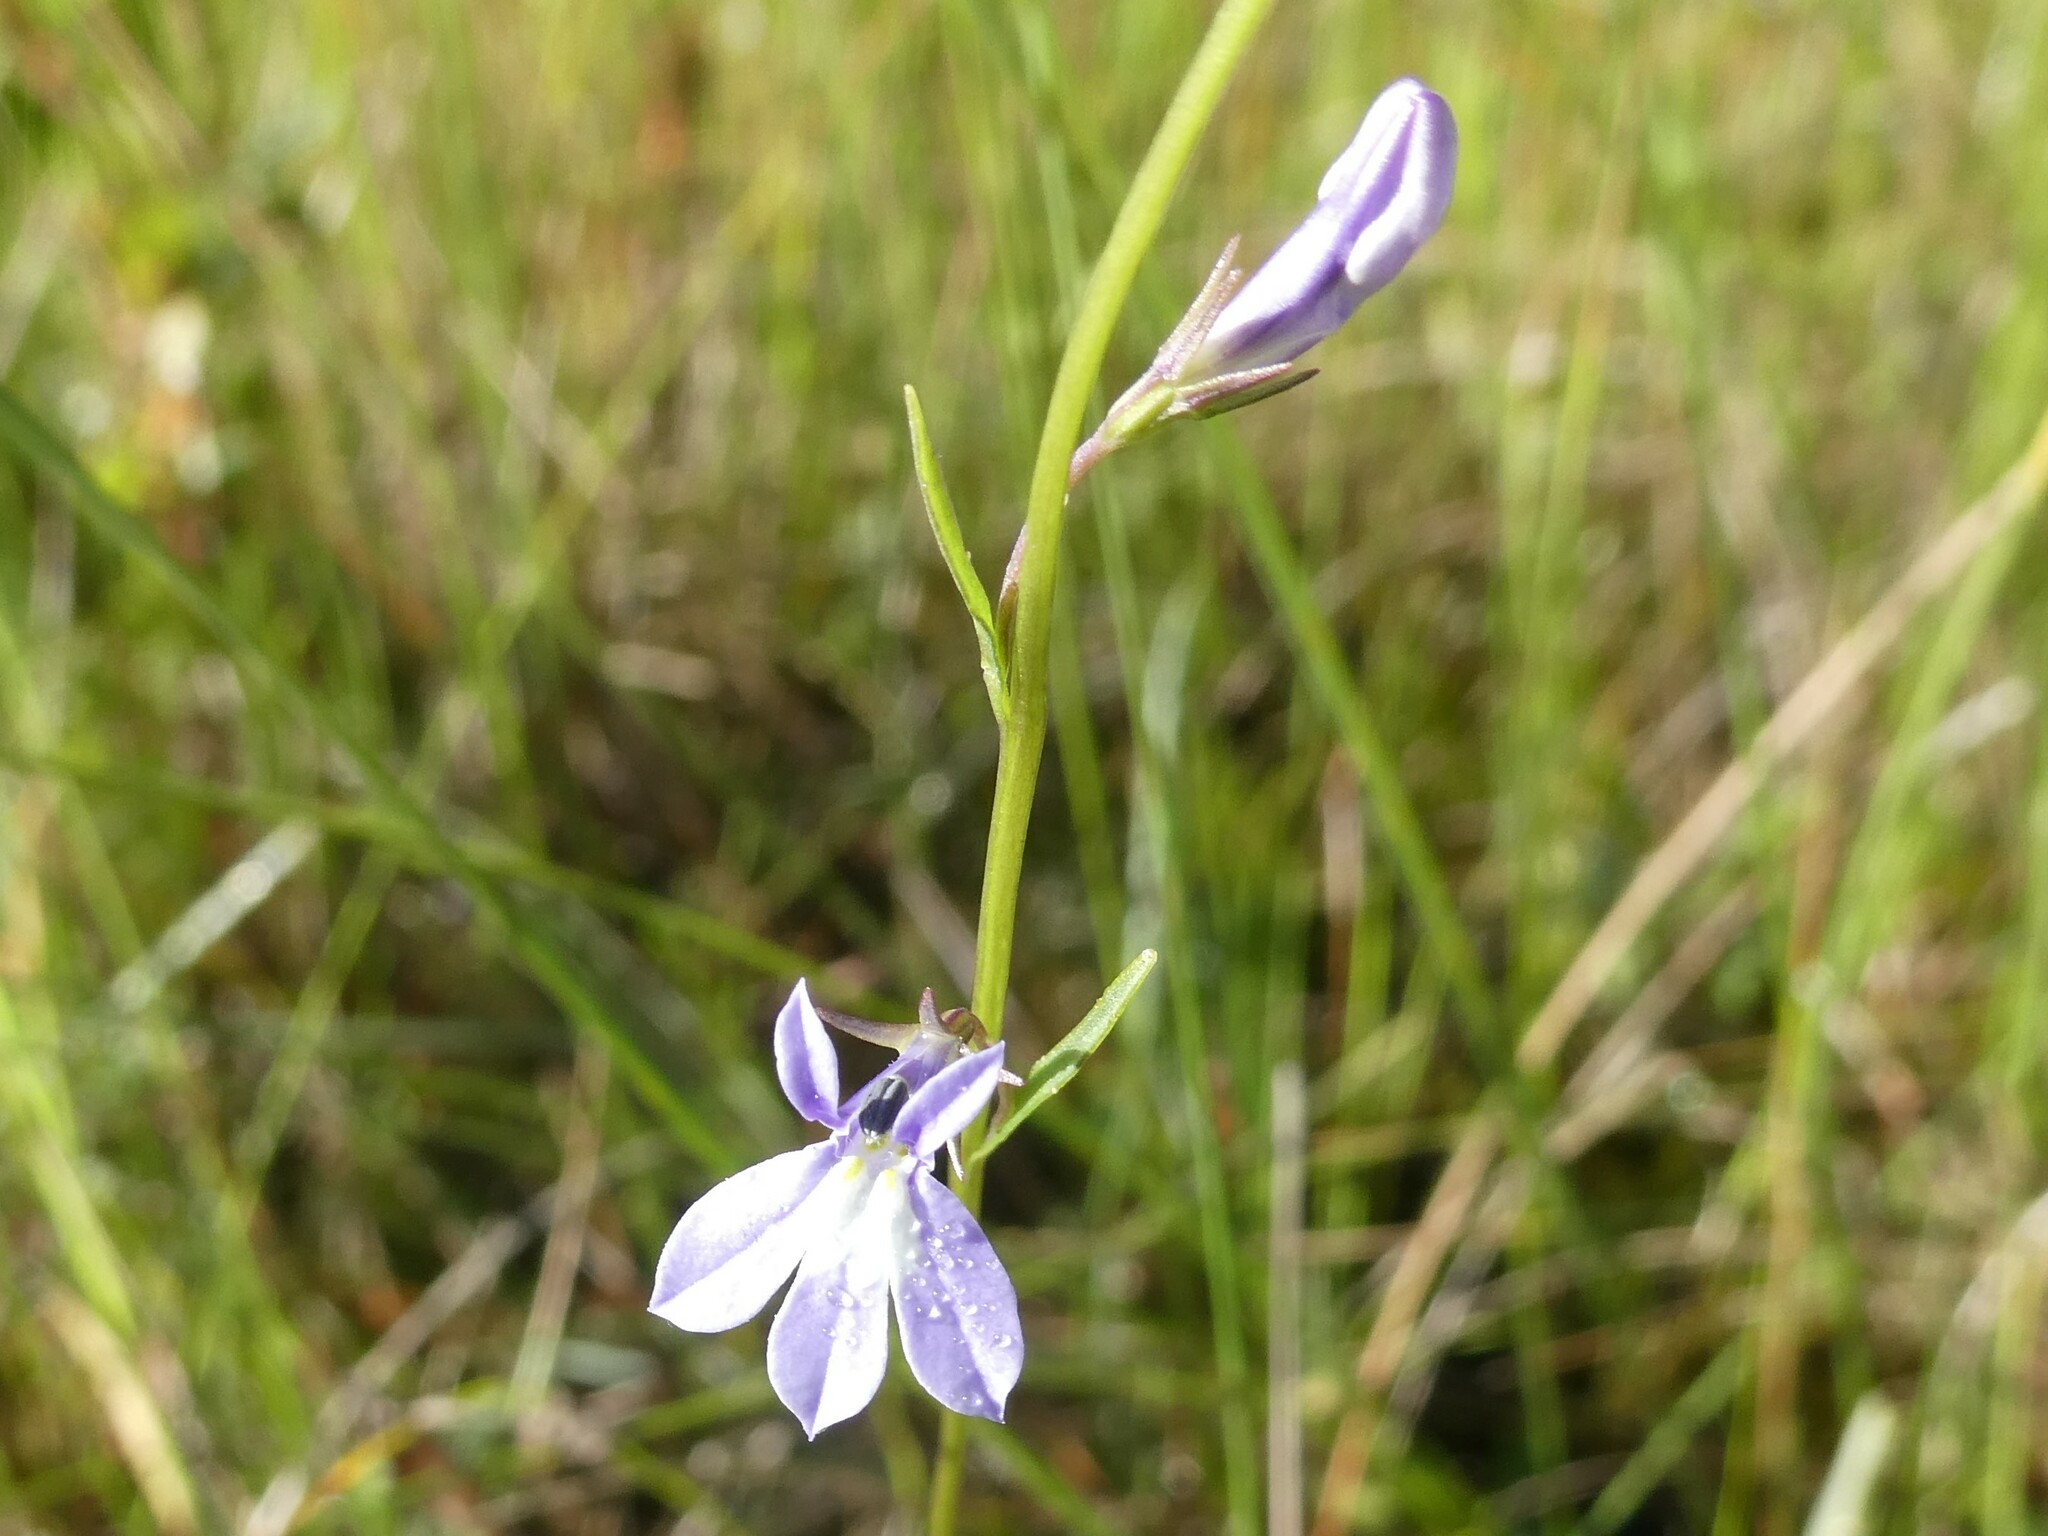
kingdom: Plantae
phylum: Tracheophyta
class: Magnoliopsida
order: Asterales
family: Campanulaceae
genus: Lobelia
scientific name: Lobelia kalmii
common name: Kalm's lobelia
